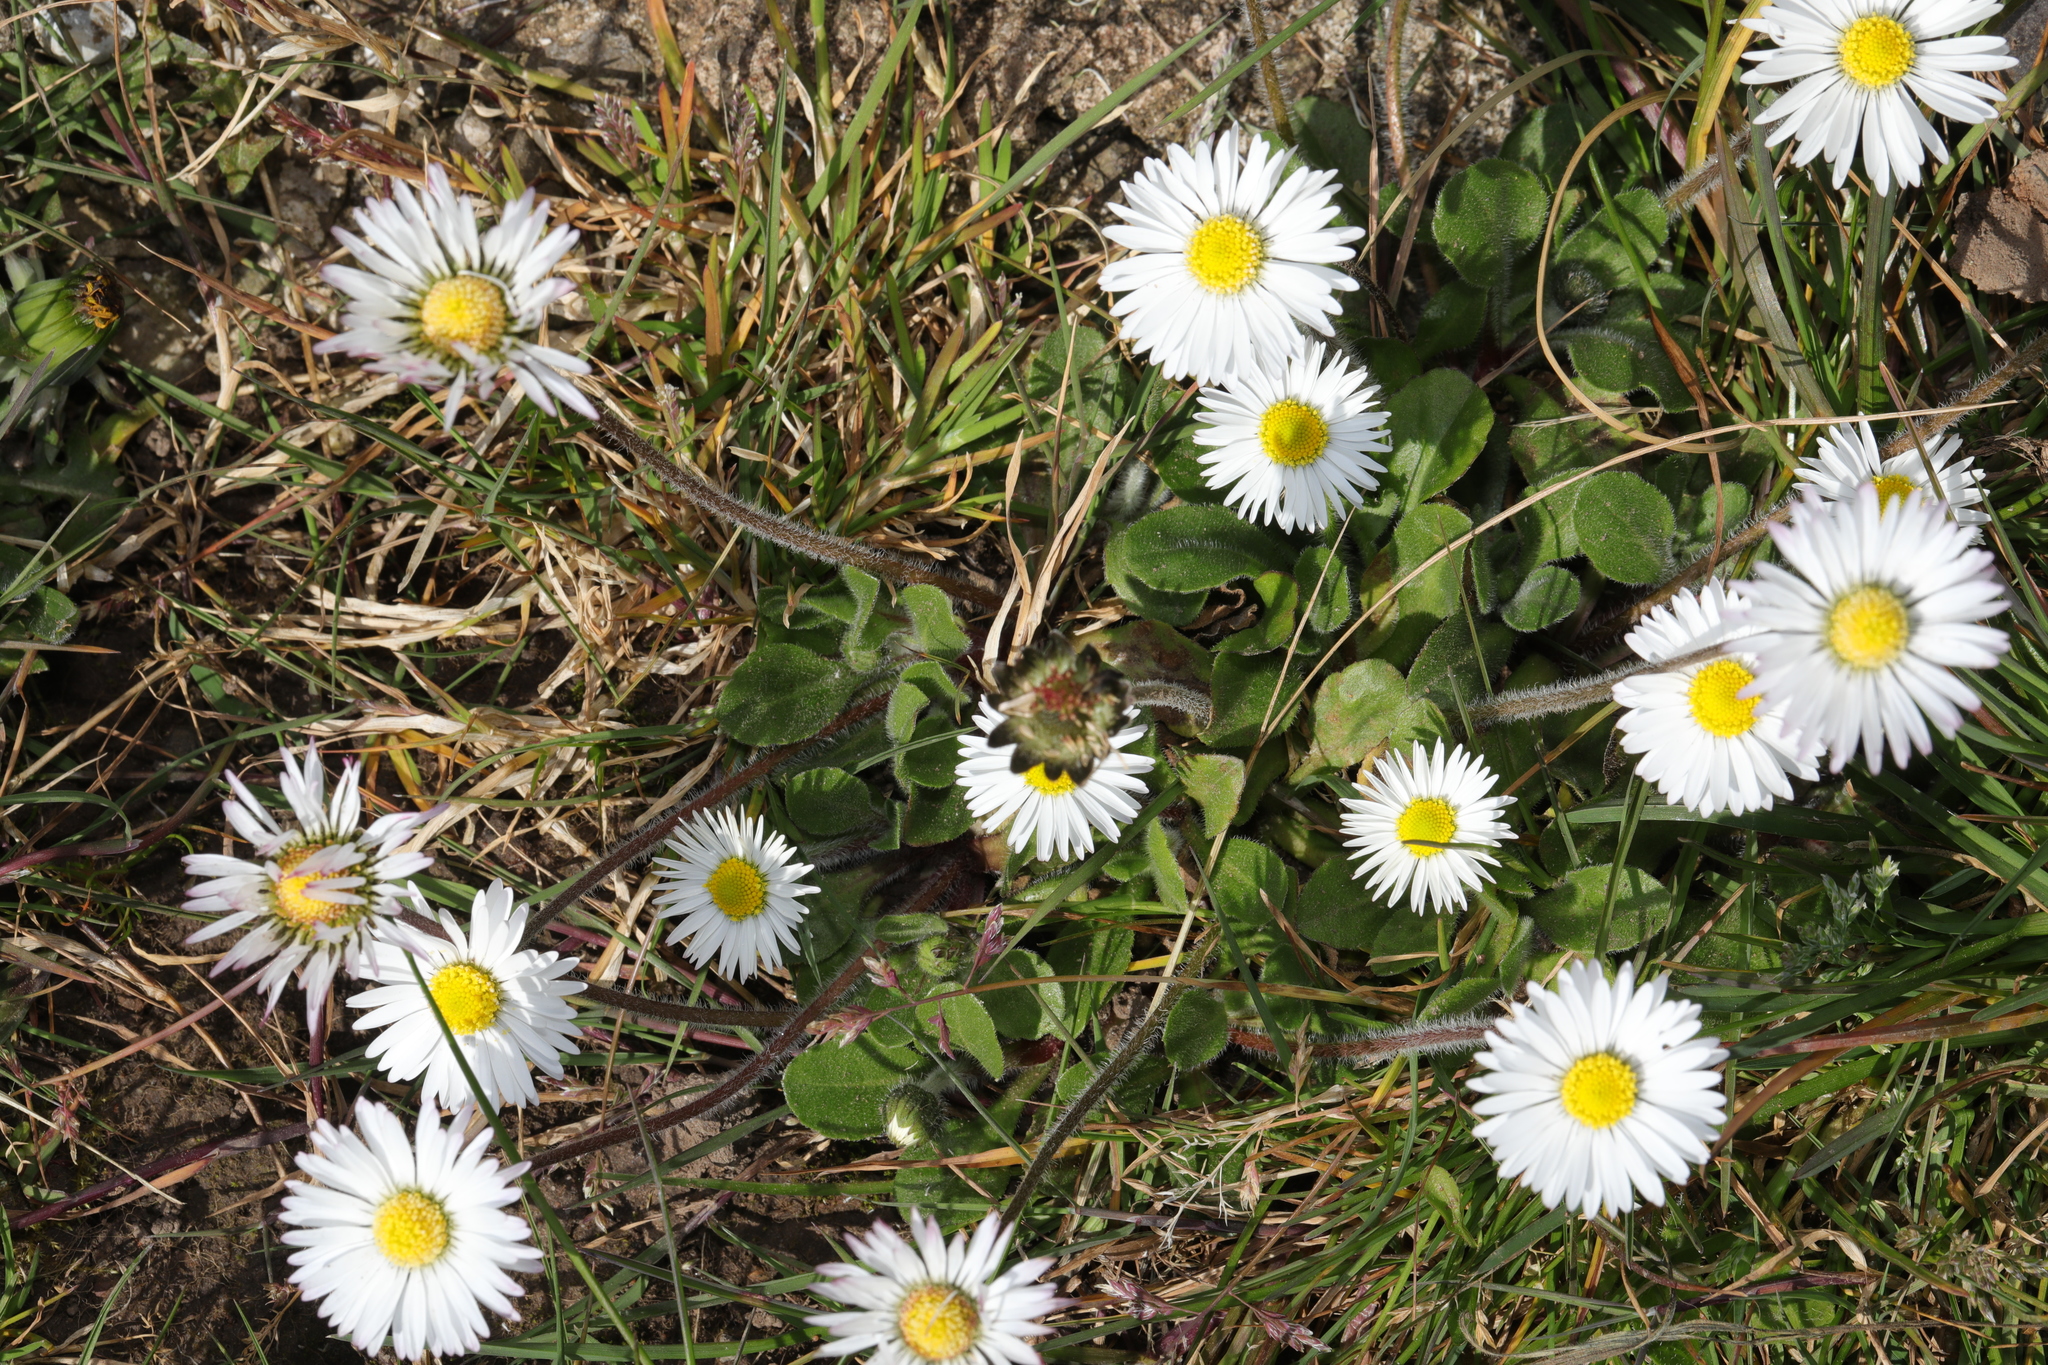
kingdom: Plantae
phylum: Tracheophyta
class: Magnoliopsida
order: Asterales
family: Asteraceae
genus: Bellis
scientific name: Bellis perennis
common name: Lawndaisy
